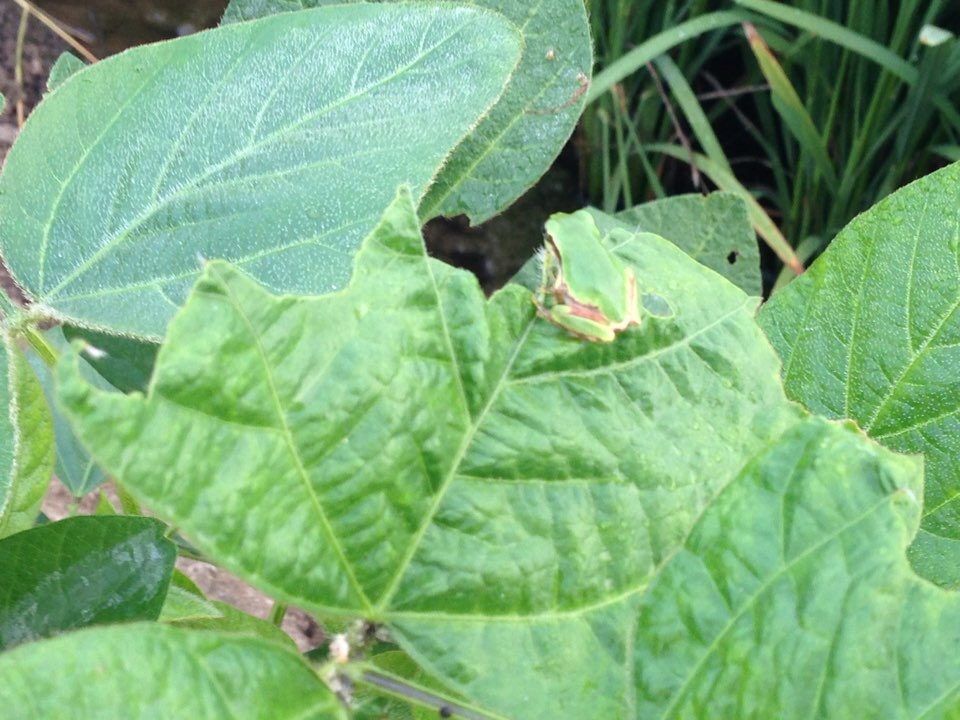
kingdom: Animalia
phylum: Chordata
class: Amphibia
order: Anura
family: Hylidae
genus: Dryophytes
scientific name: Dryophytes japonicus
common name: Japanese treefrog
